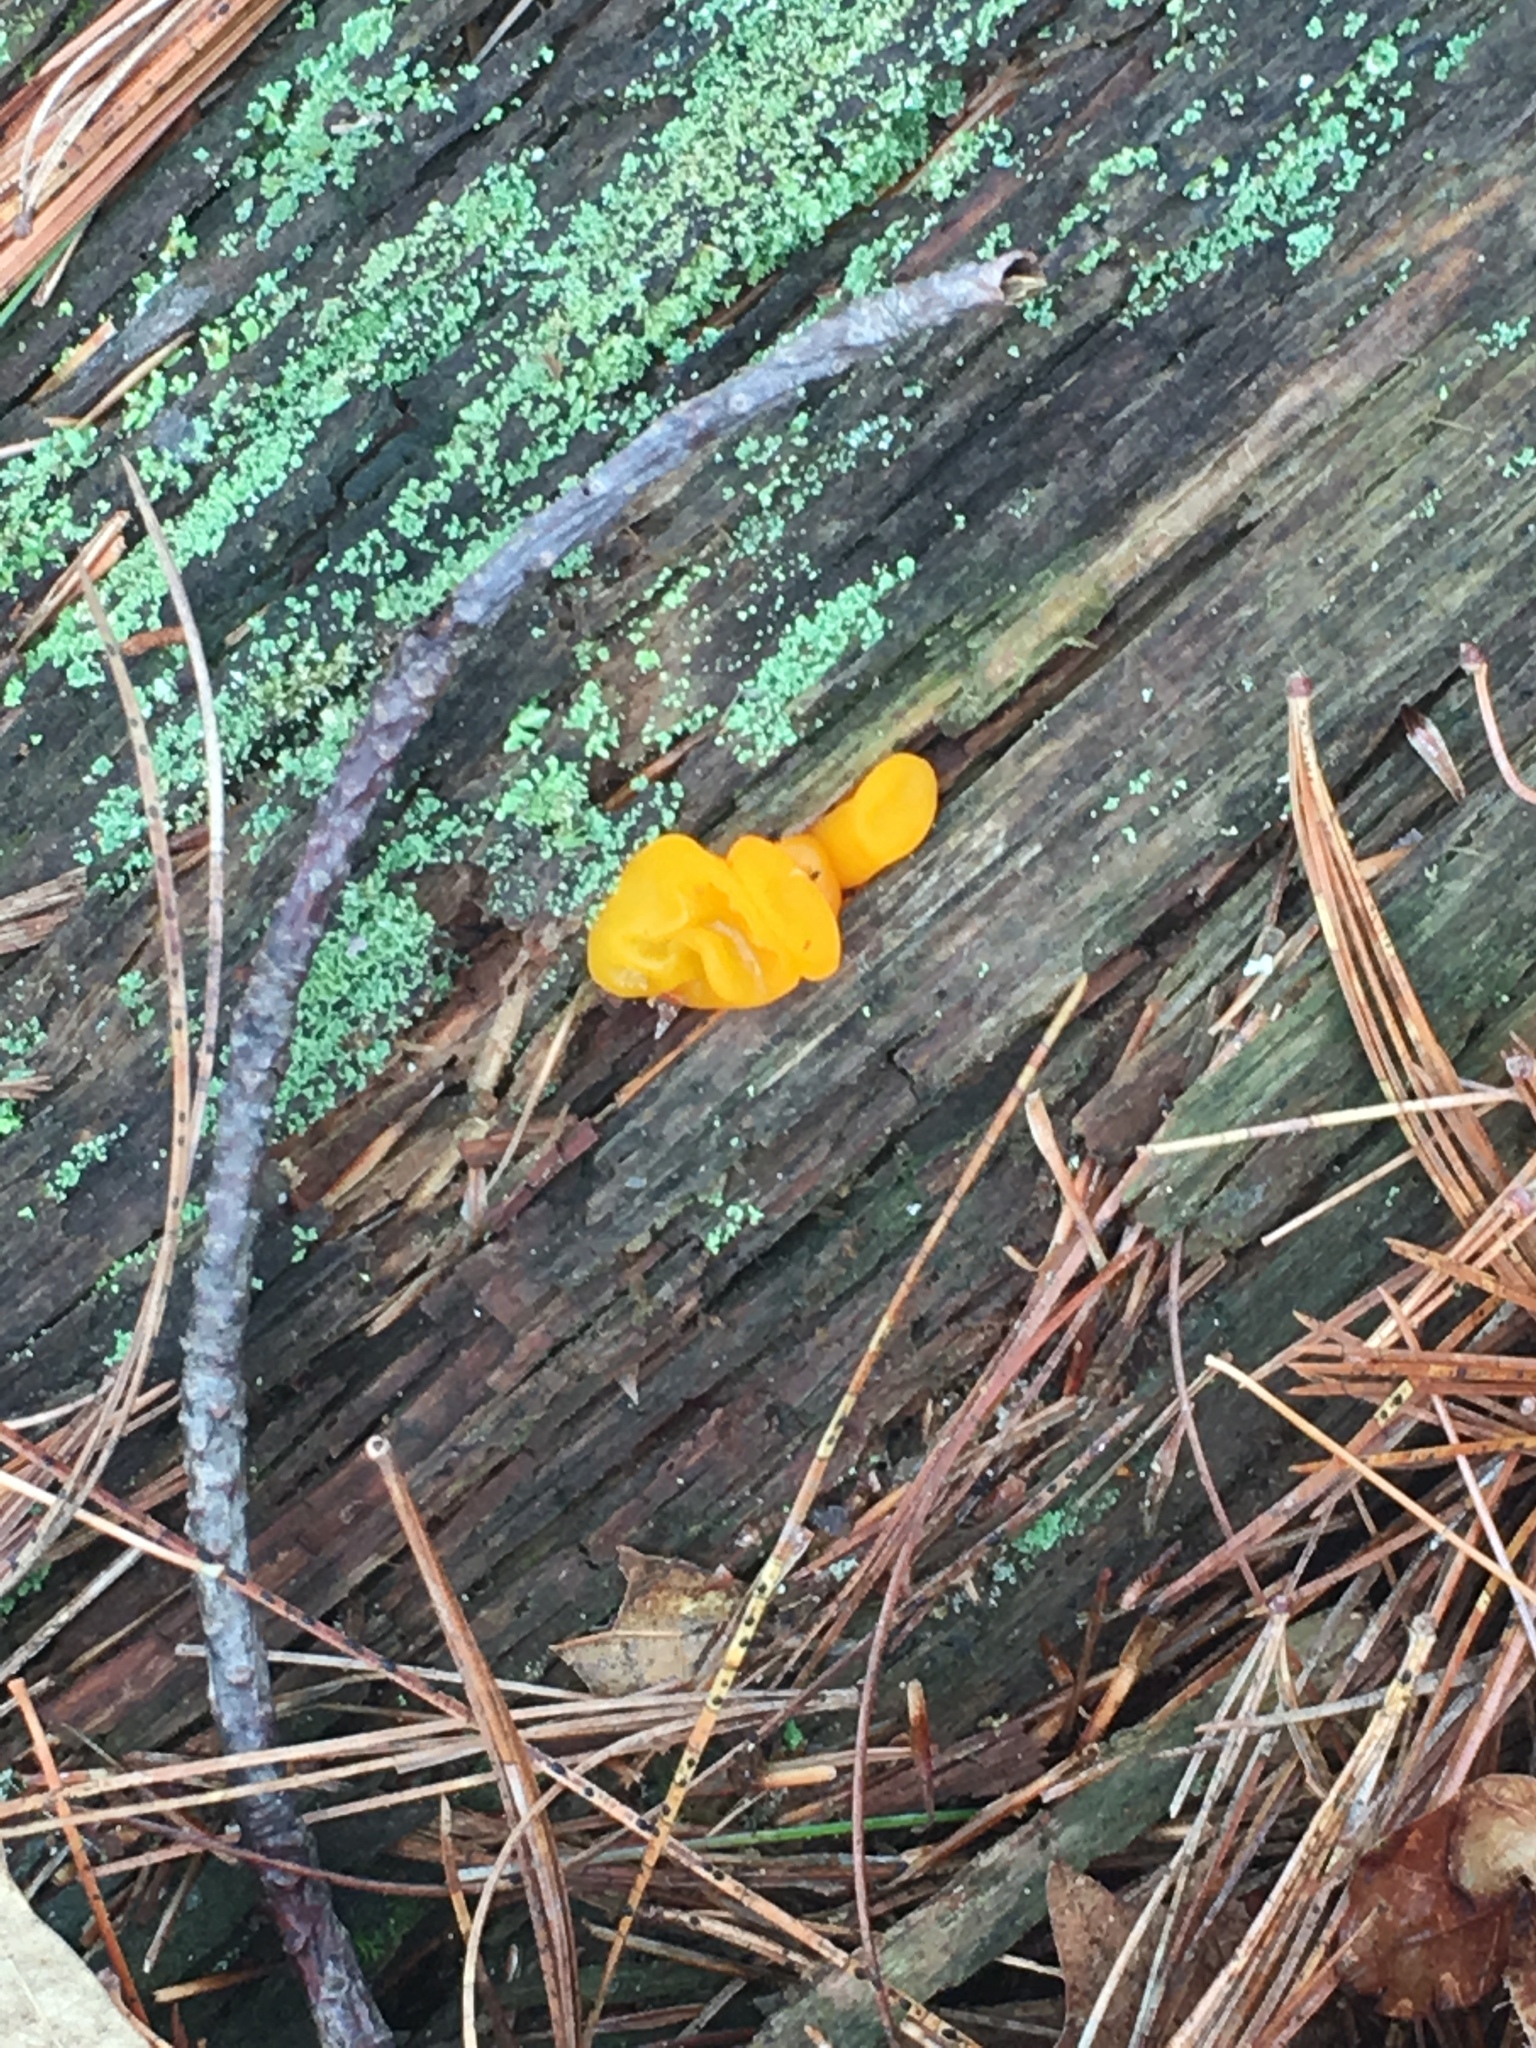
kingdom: Fungi
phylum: Basidiomycota
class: Tremellomycetes
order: Tremellales
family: Tremellaceae
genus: Tremella
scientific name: Tremella mesenterica
